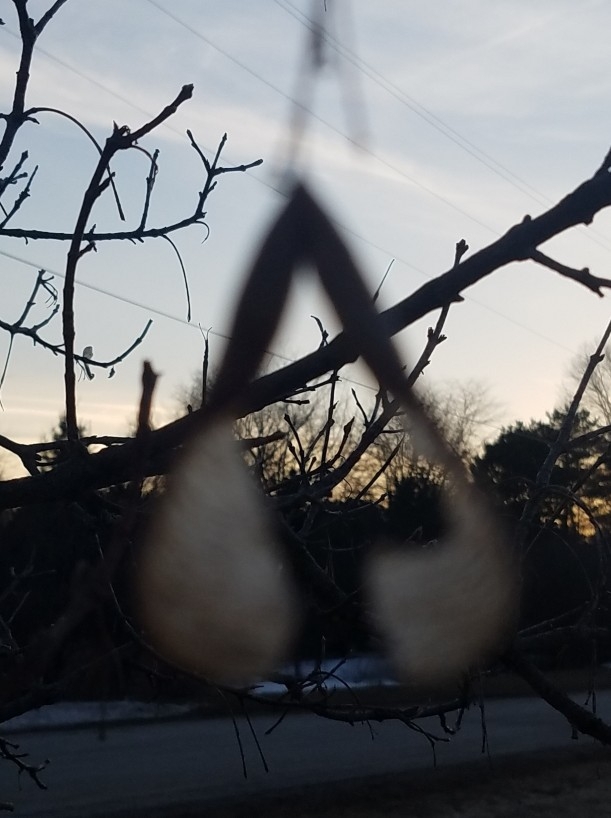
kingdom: Plantae
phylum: Tracheophyta
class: Magnoliopsida
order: Sapindales
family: Sapindaceae
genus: Acer
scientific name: Acer negundo
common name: Ashleaf maple
